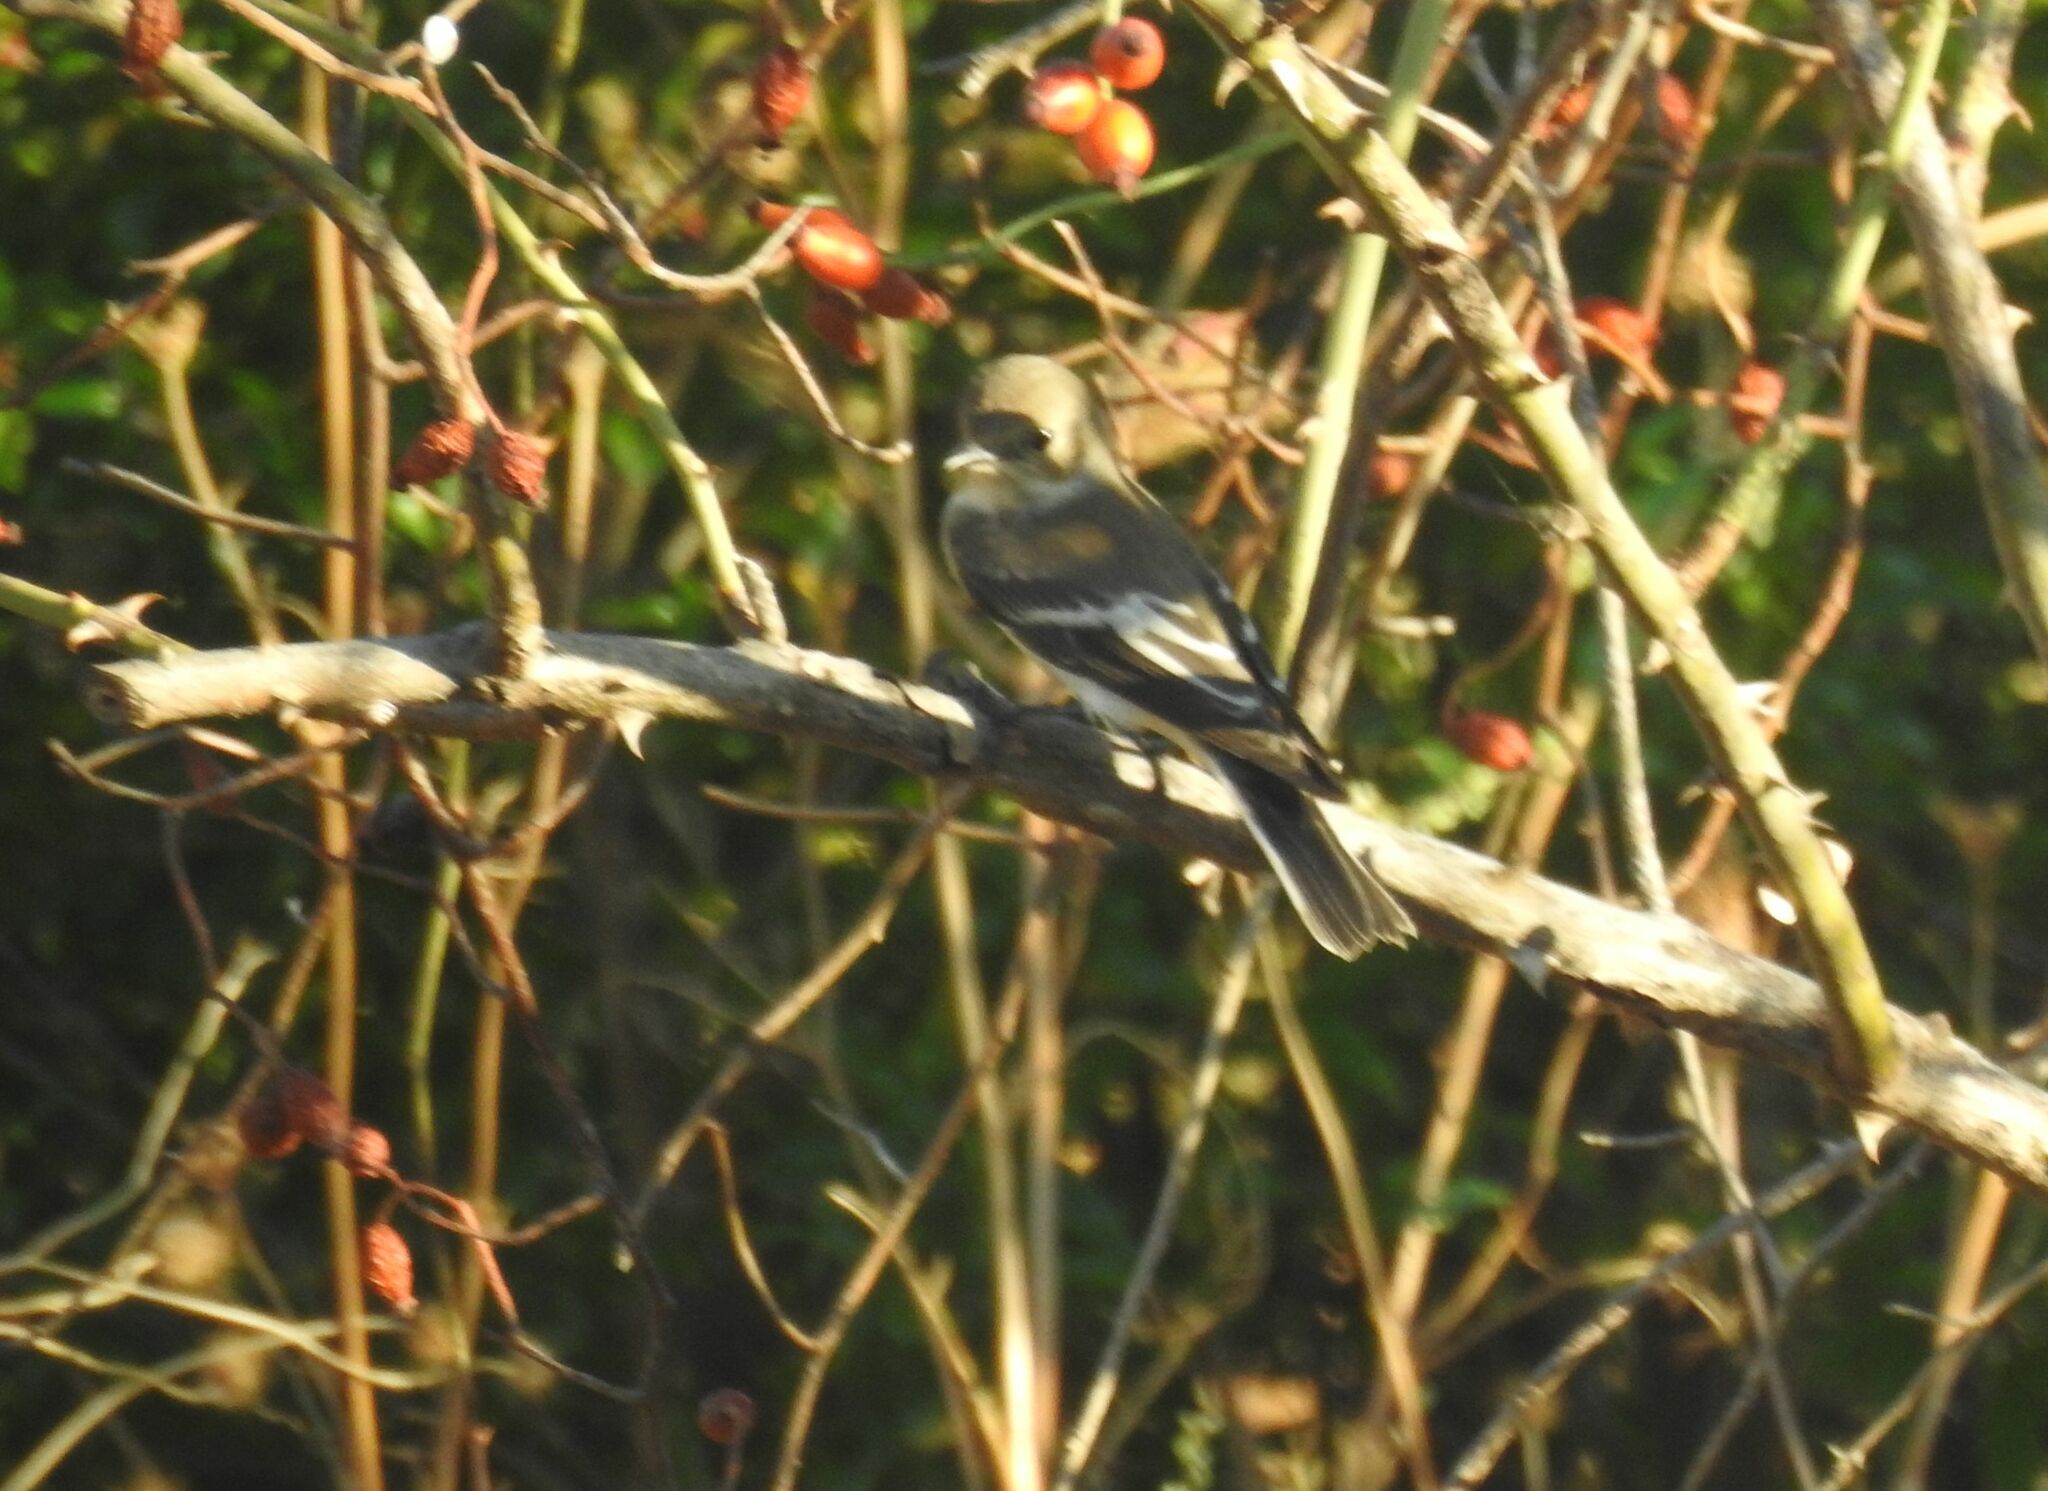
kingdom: Animalia
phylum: Chordata
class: Aves
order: Passeriformes
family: Muscicapidae
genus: Ficedula
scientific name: Ficedula hypoleuca
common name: European pied flycatcher
